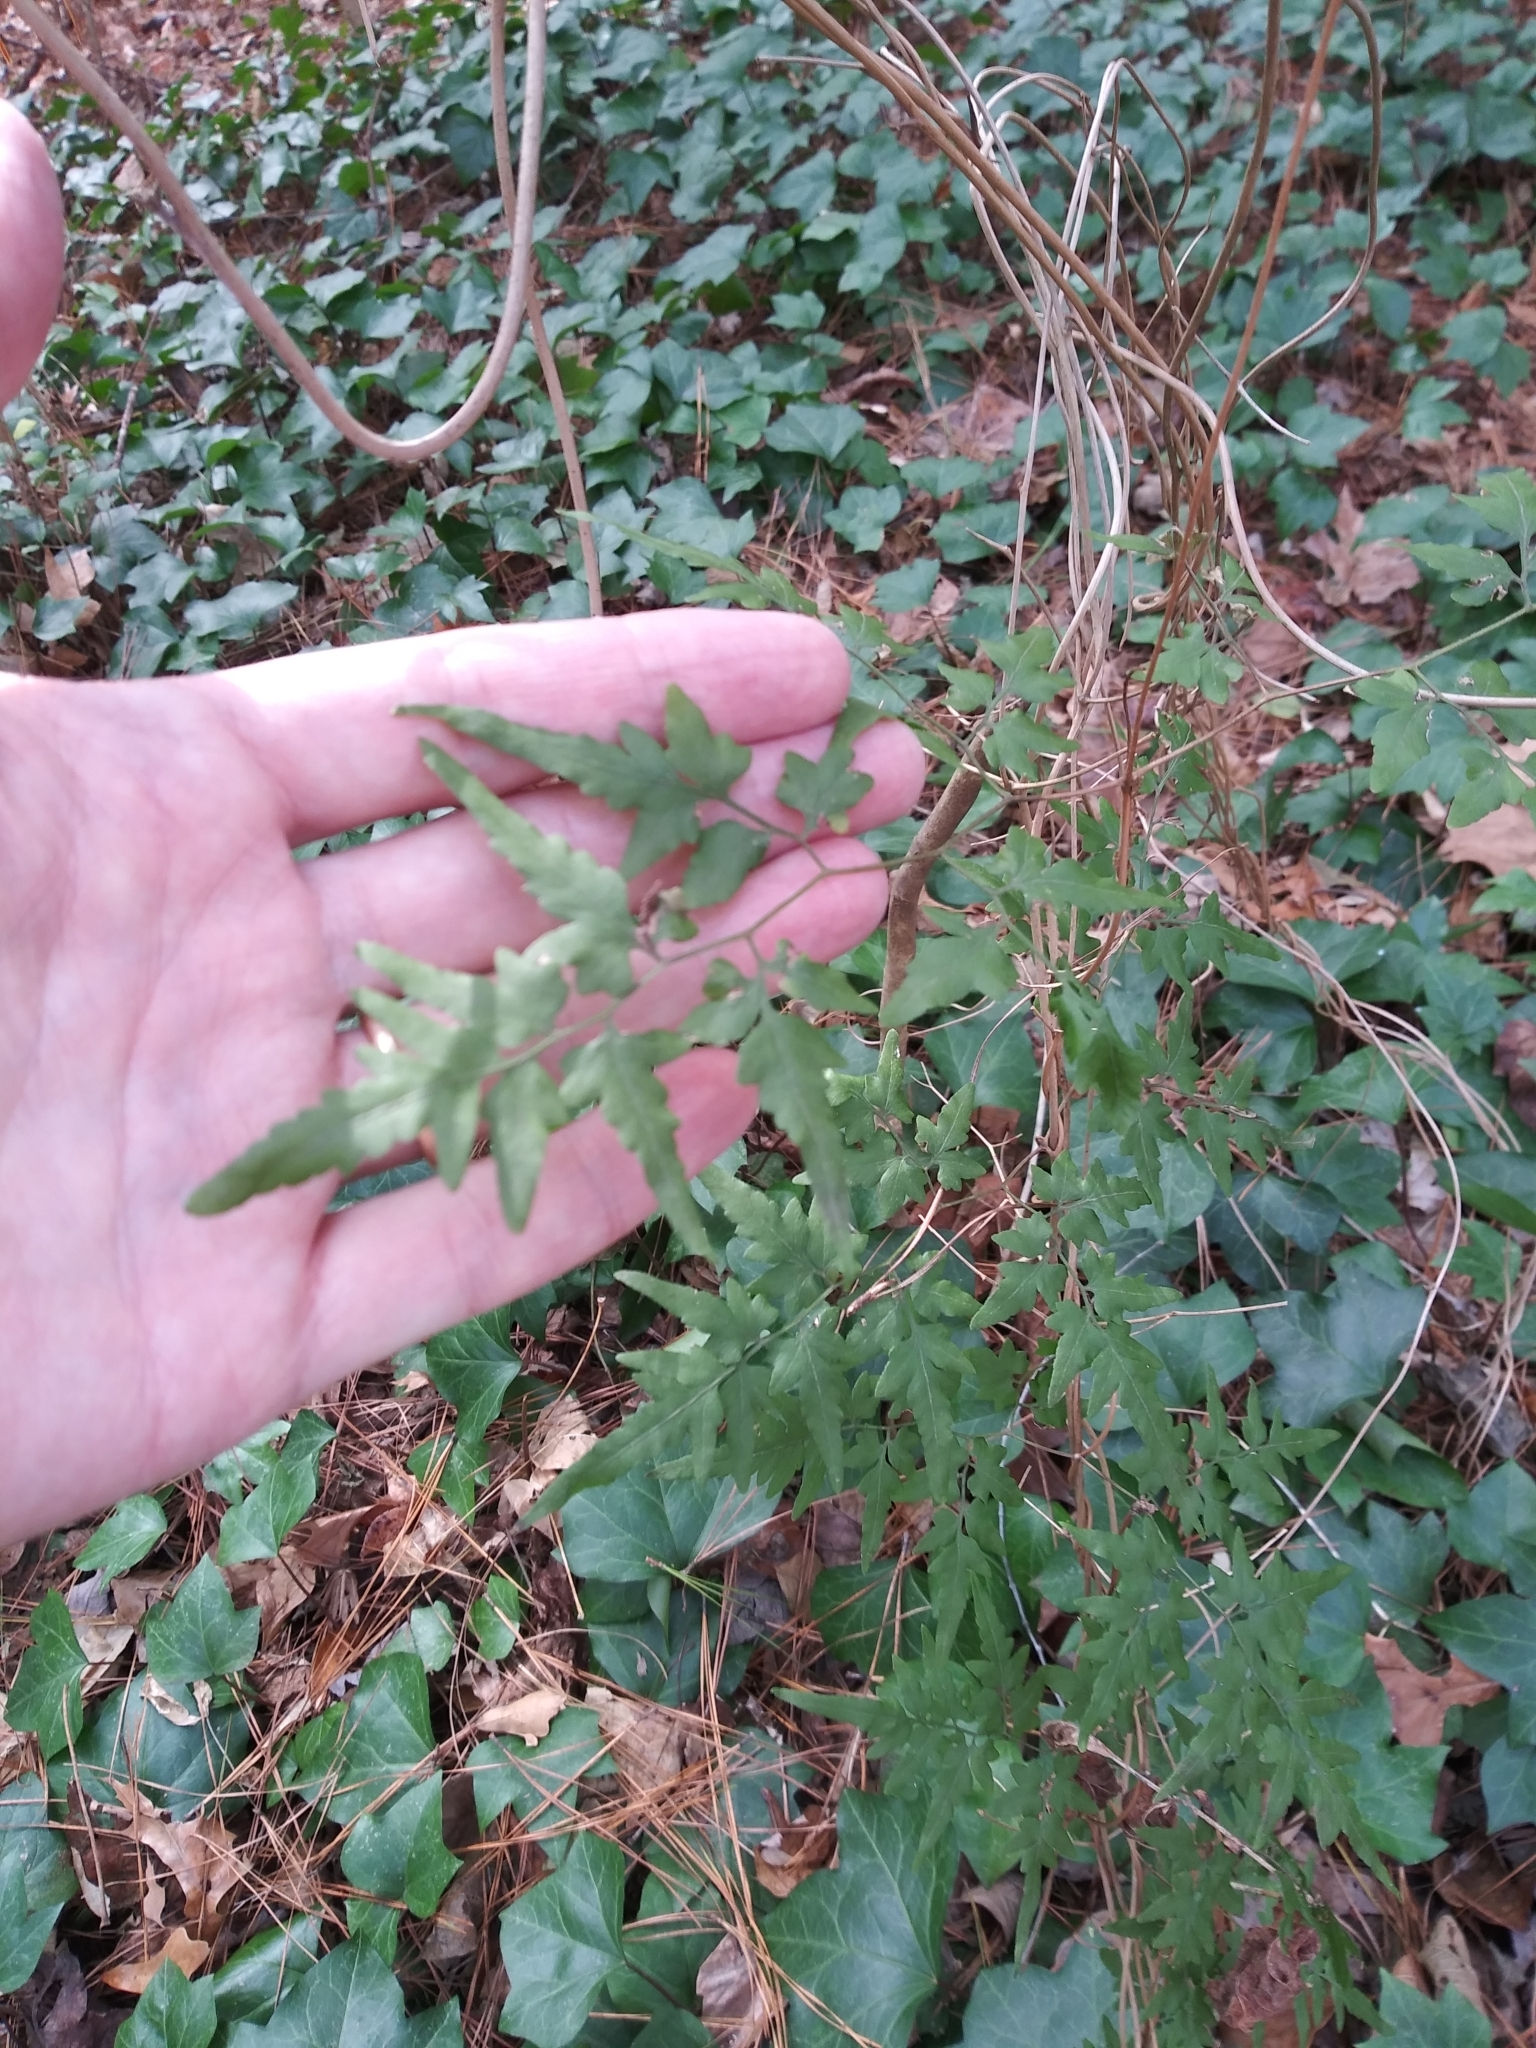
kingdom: Plantae
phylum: Tracheophyta
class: Polypodiopsida
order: Schizaeales
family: Lygodiaceae
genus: Lygodium
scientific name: Lygodium japonicum
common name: Japanese climbing fern
